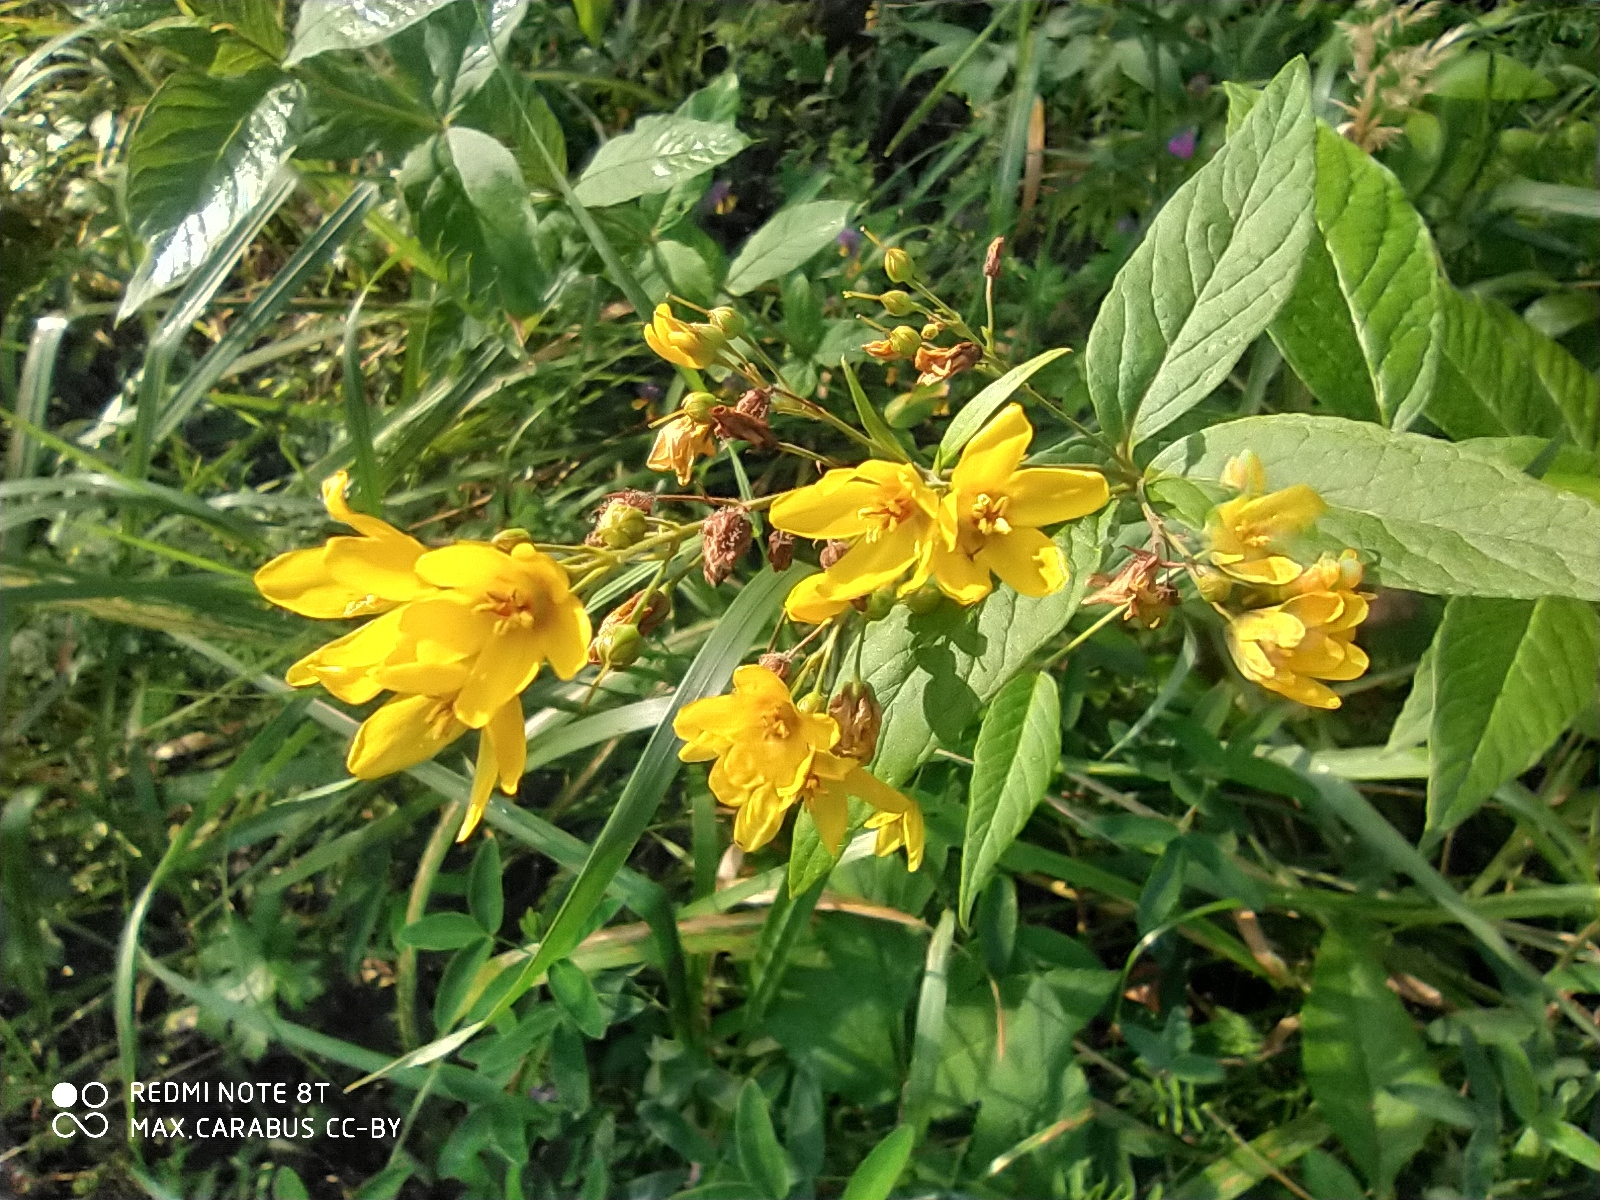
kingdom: Plantae
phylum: Tracheophyta
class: Magnoliopsida
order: Ericales
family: Primulaceae
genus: Lysimachia
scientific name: Lysimachia vulgaris
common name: Yellow loosestrife
